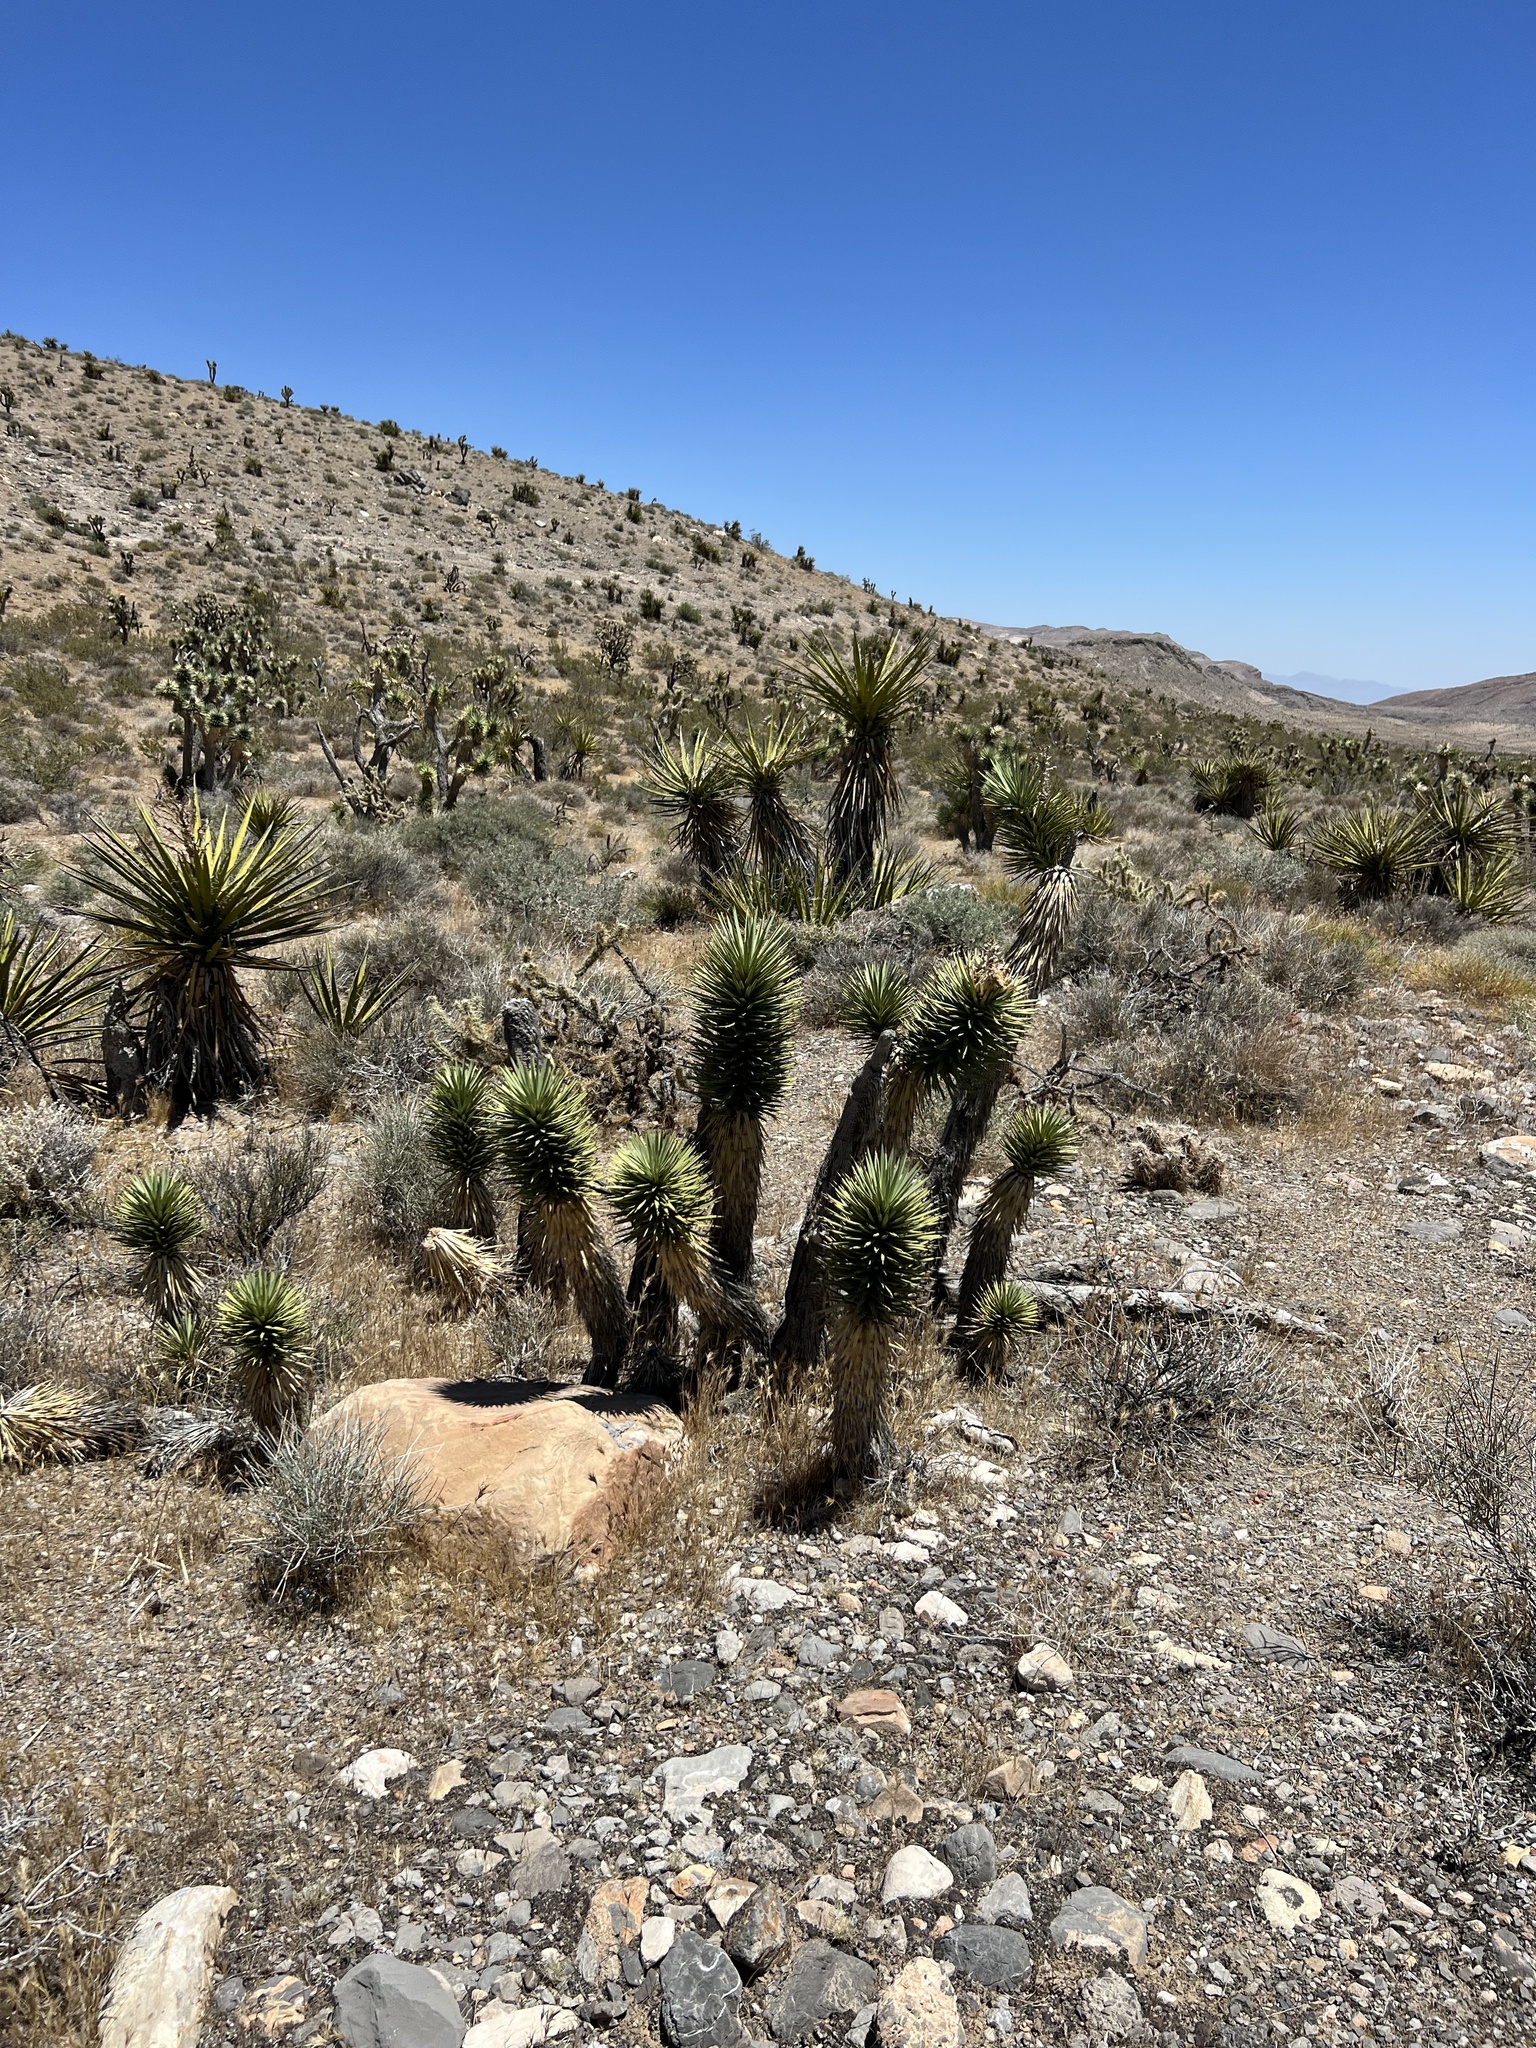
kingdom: Plantae
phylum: Tracheophyta
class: Liliopsida
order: Asparagales
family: Asparagaceae
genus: Yucca
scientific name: Yucca brevifolia
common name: Joshua tree
